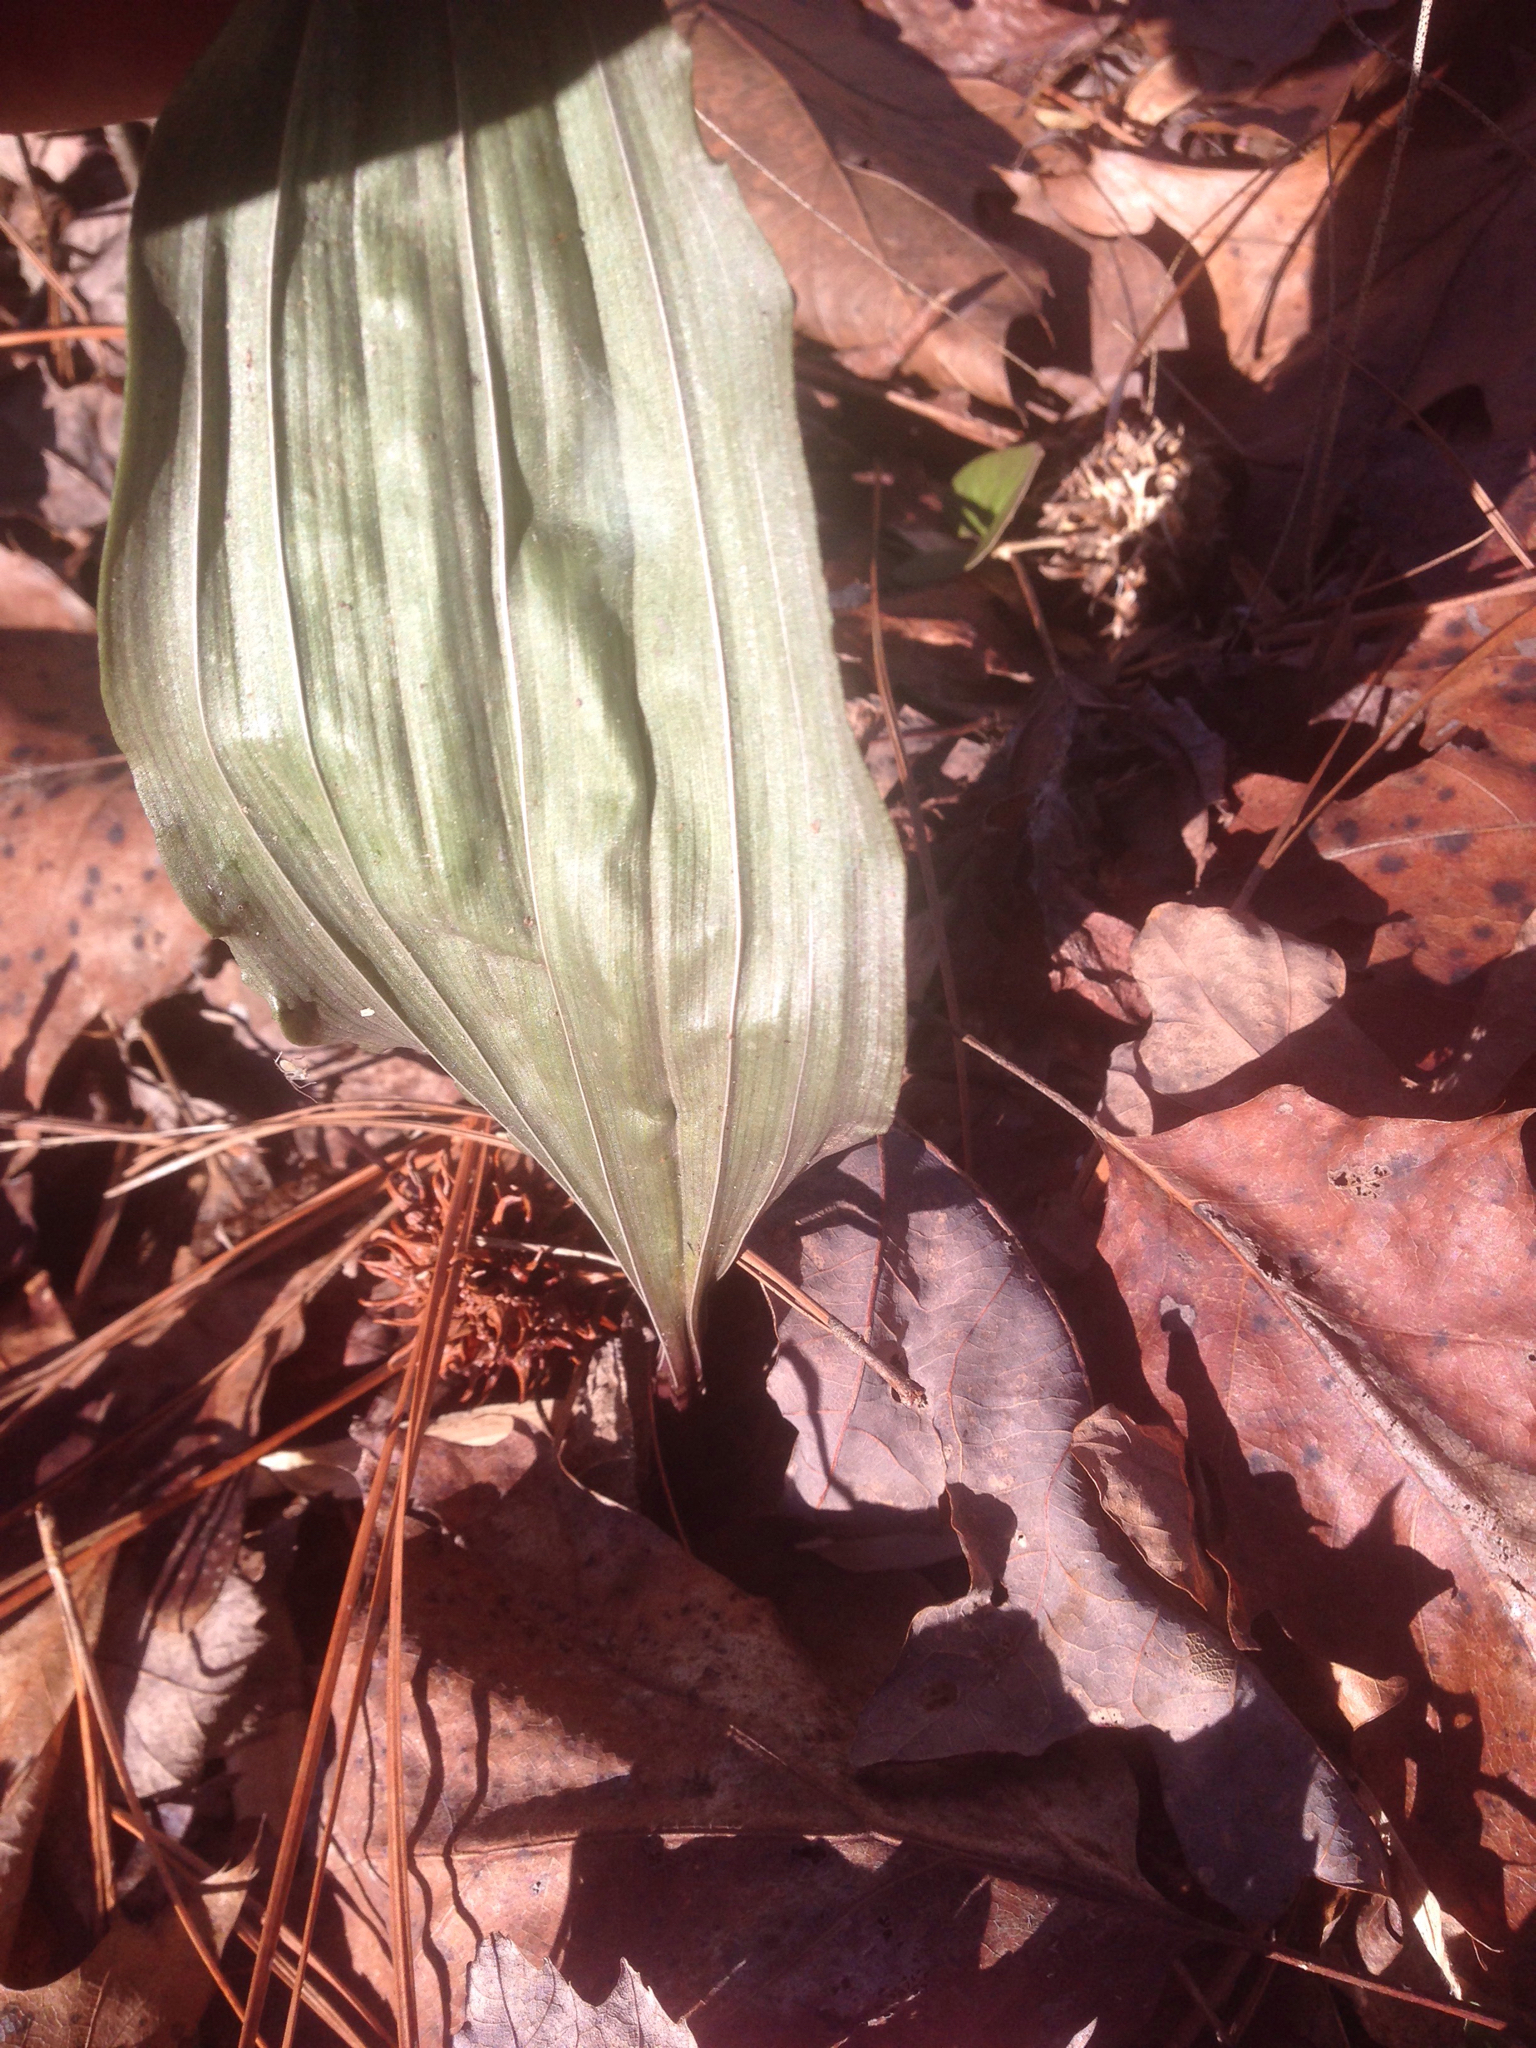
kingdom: Plantae
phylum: Tracheophyta
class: Liliopsida
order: Asparagales
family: Orchidaceae
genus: Aplectrum
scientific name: Aplectrum hyemale
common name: Adam-and-eve
